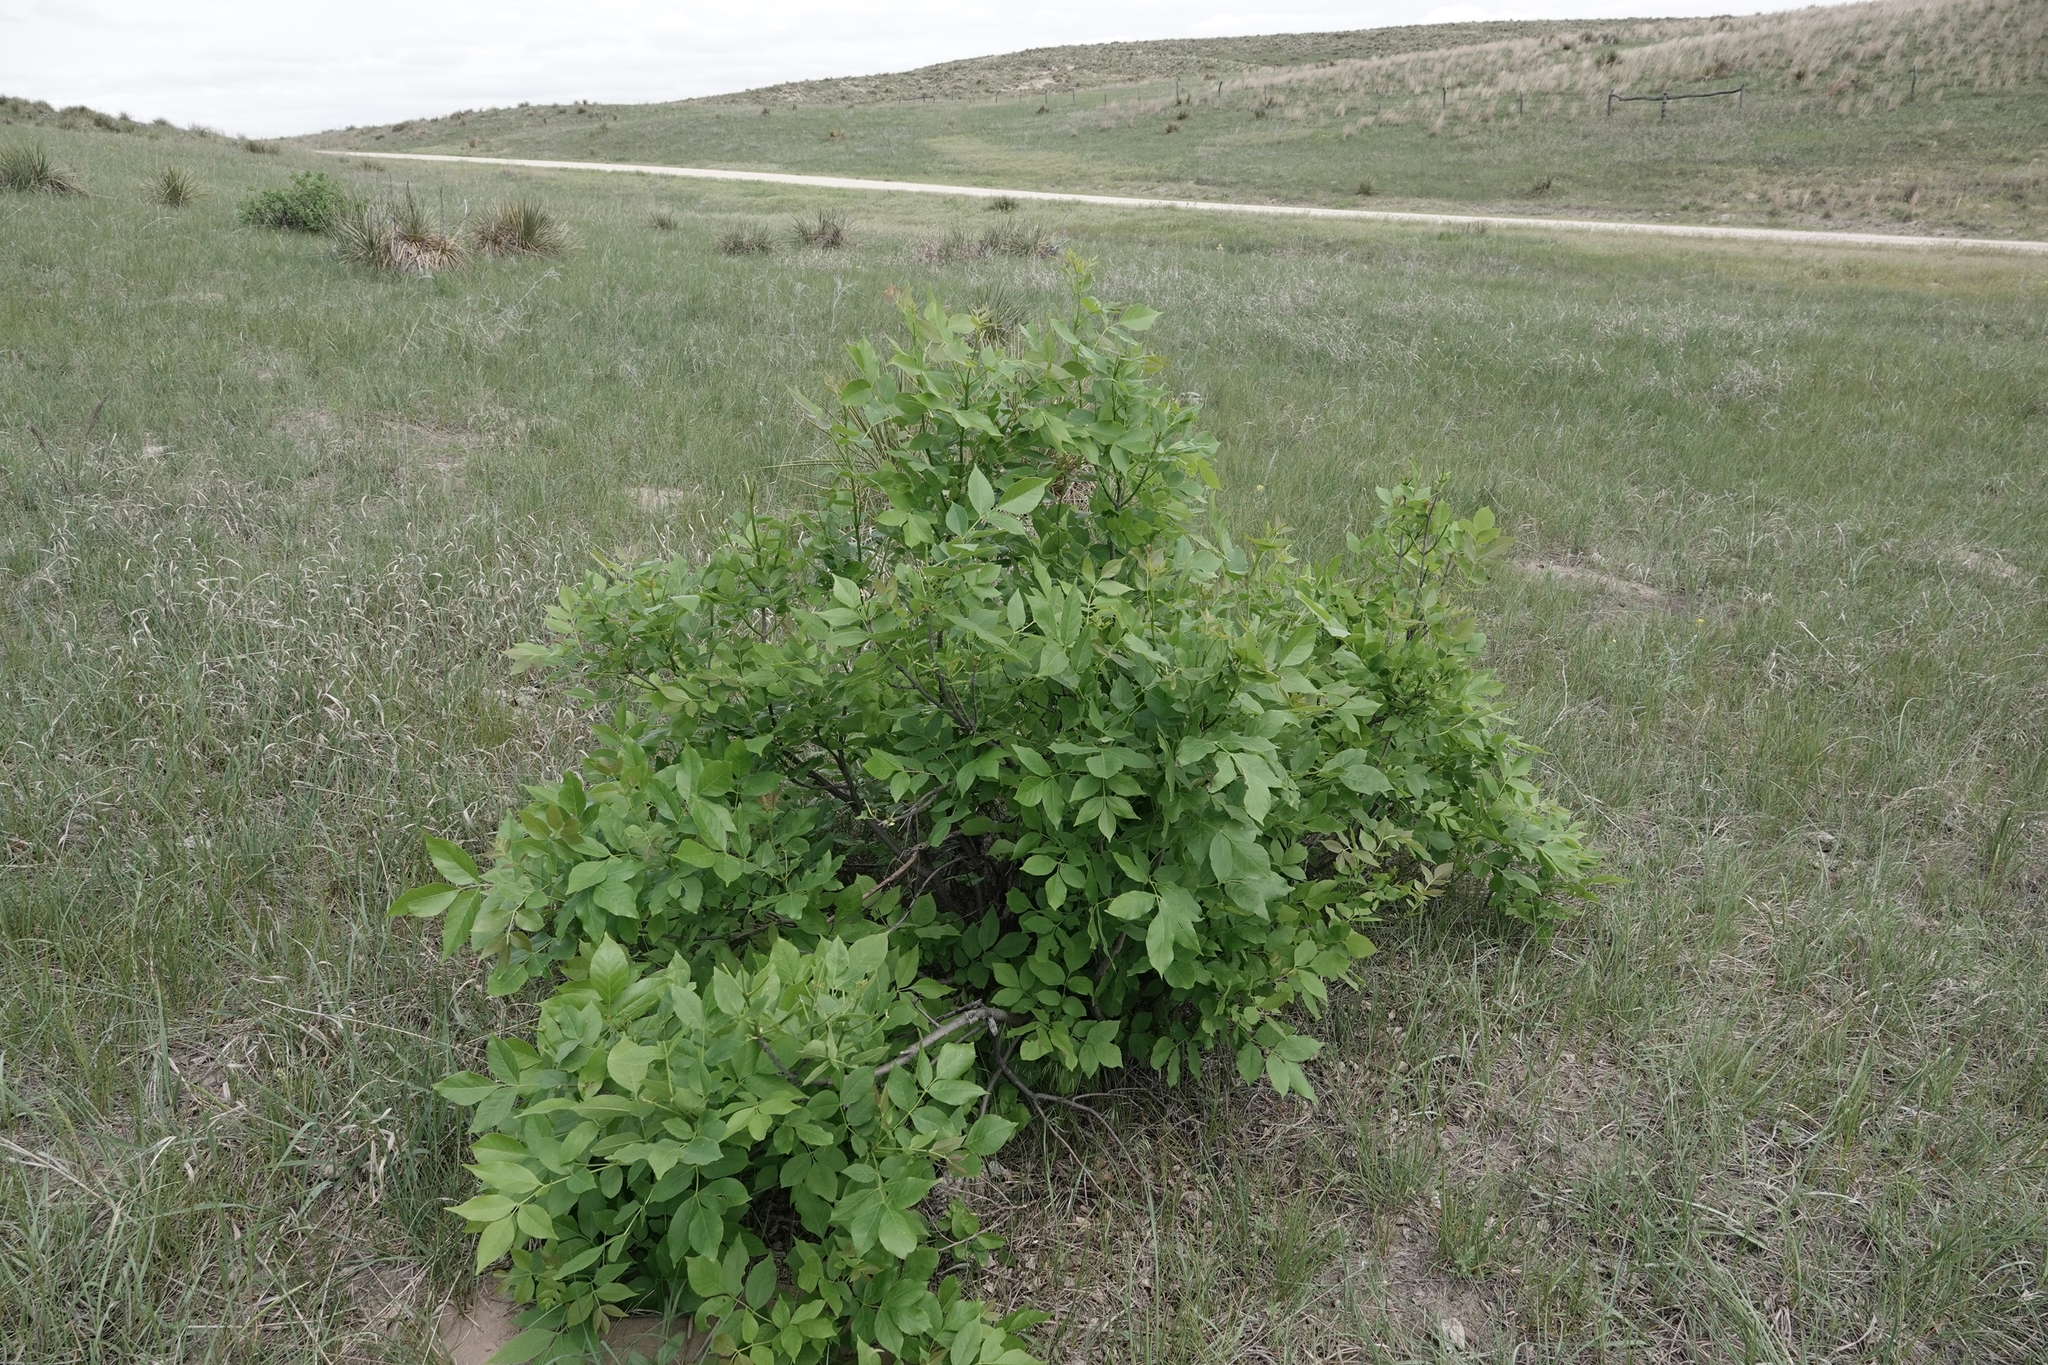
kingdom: Plantae
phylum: Tracheophyta
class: Magnoliopsida
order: Lamiales
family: Oleaceae
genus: Fraxinus
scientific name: Fraxinus pennsylvanica
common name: Green ash
